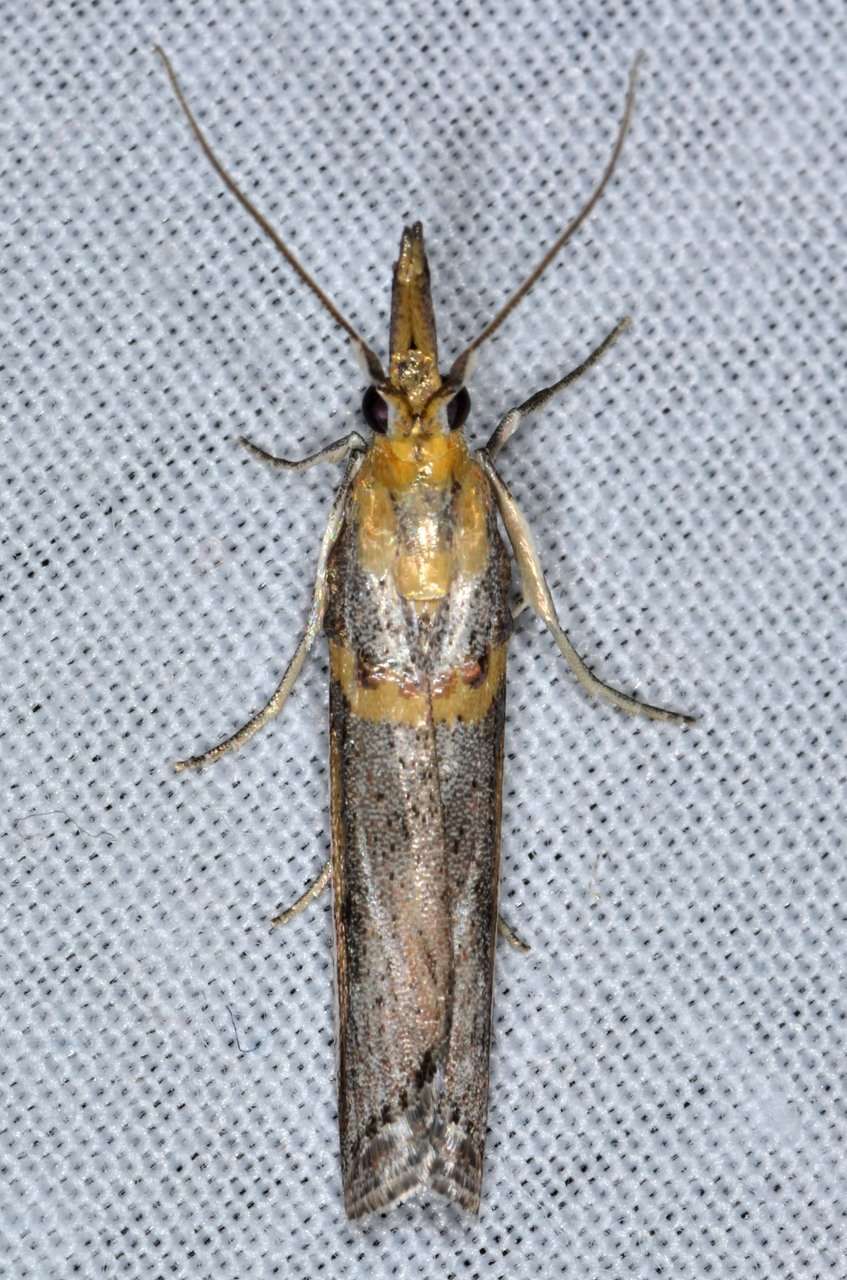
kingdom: Animalia
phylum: Arthropoda
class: Insecta
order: Lepidoptera
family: Pyralidae
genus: Etiella
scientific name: Etiella behrii
